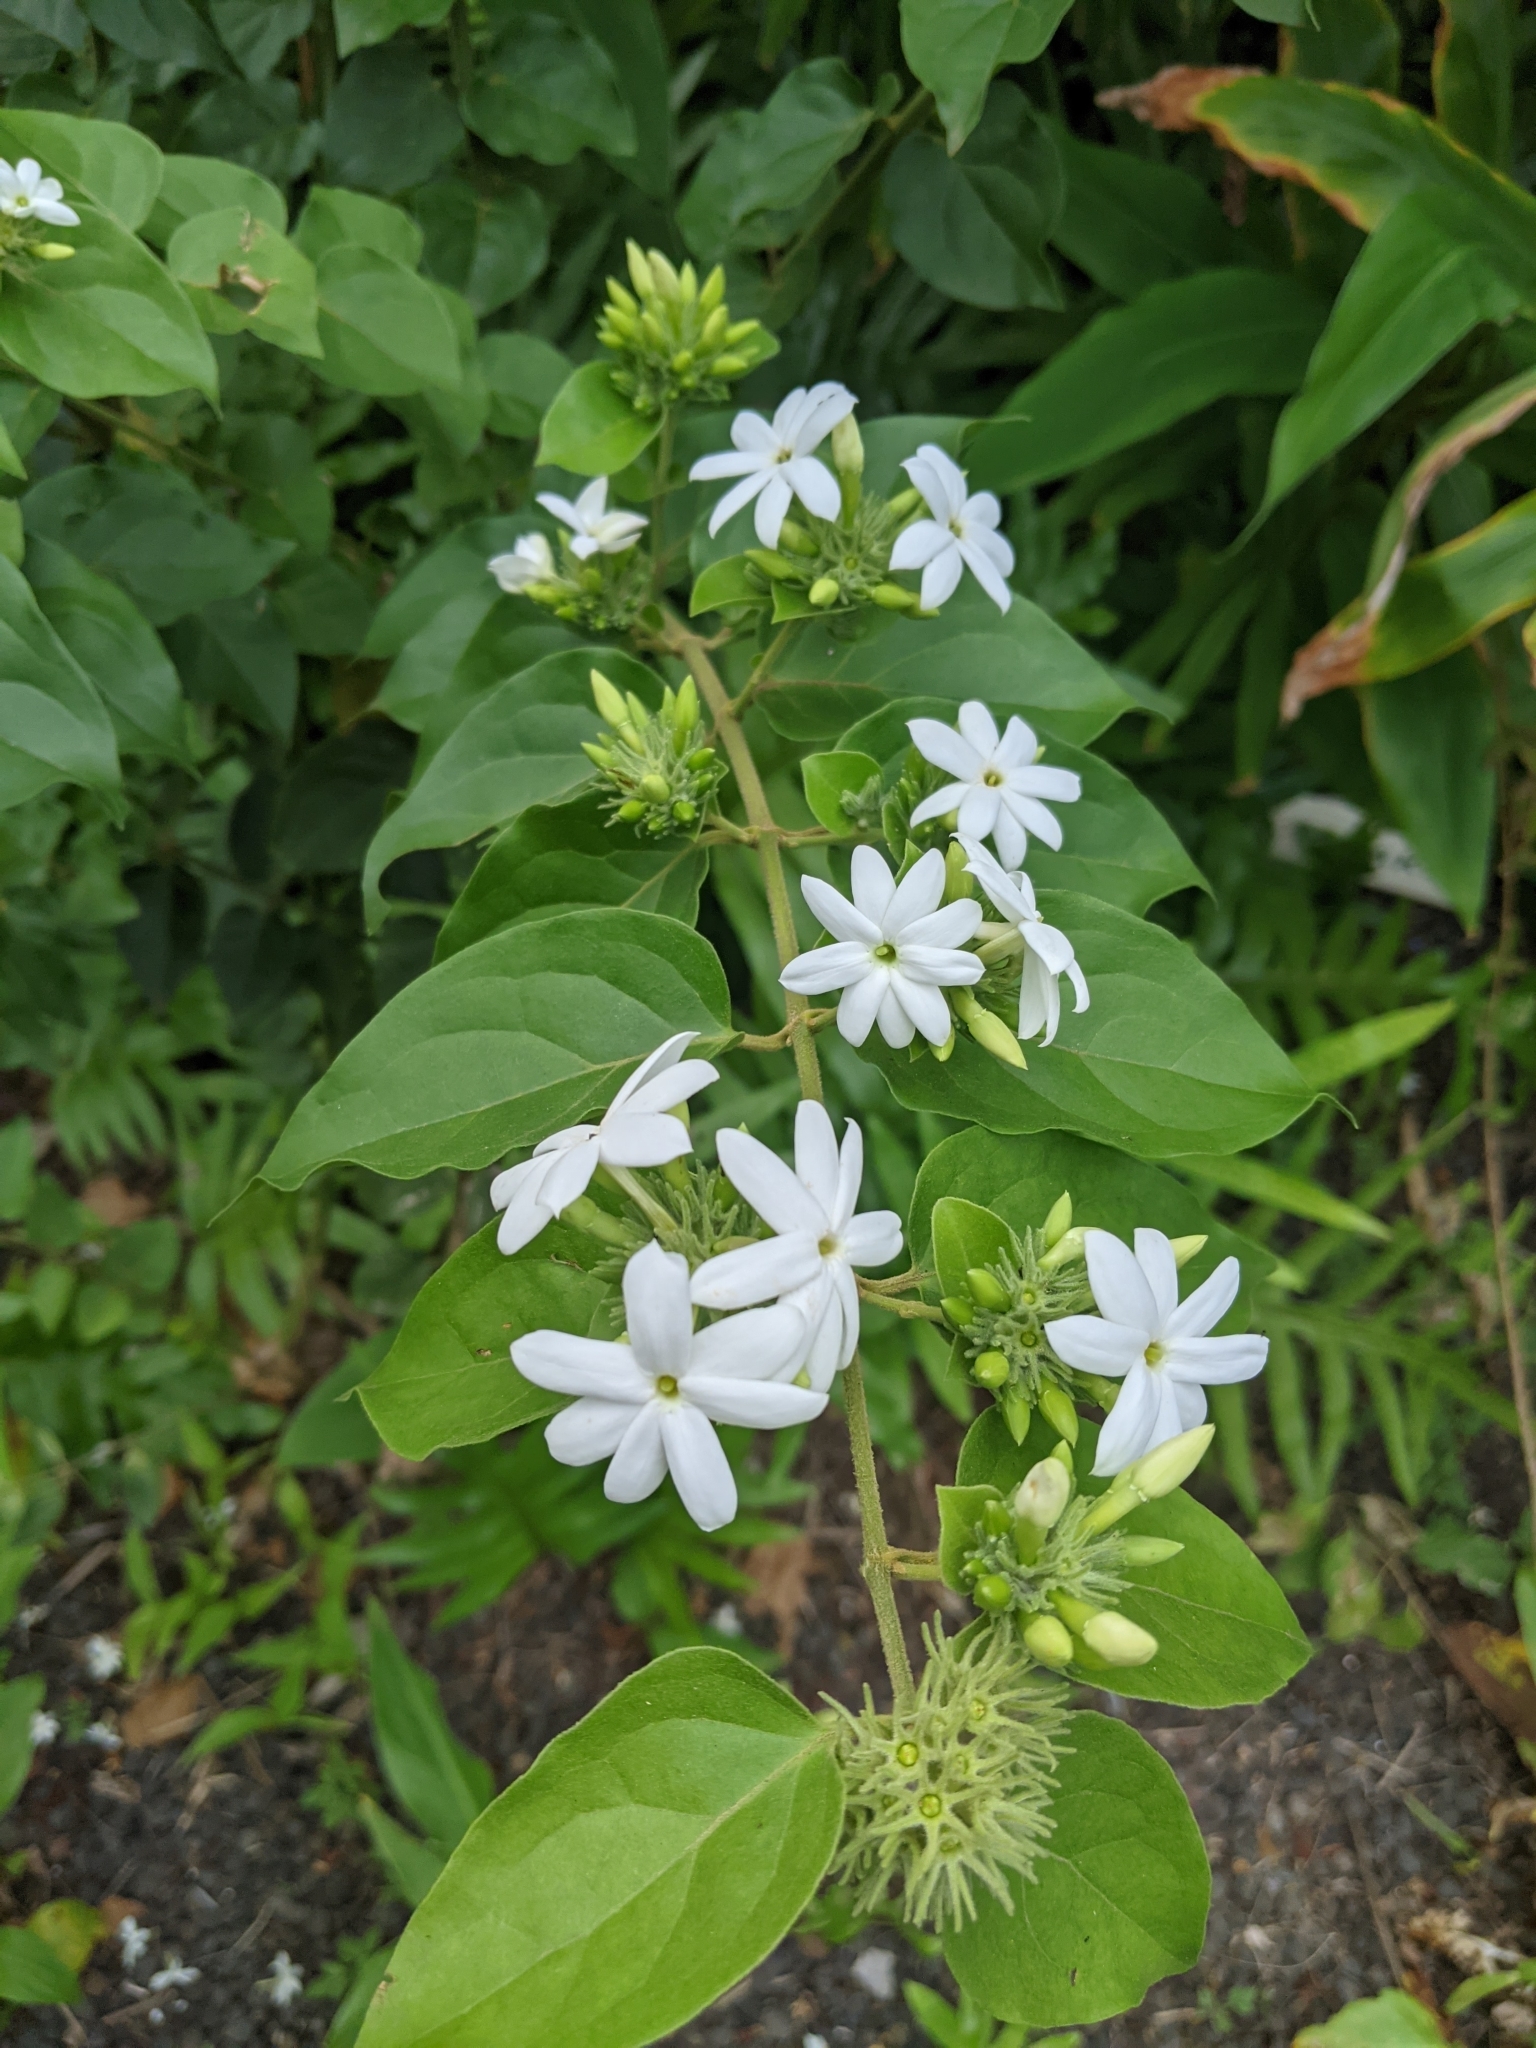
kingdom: Plantae
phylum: Tracheophyta
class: Magnoliopsida
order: Lamiales
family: Oleaceae
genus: Jasminum
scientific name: Jasminum multiflorum
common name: Star jasmine
